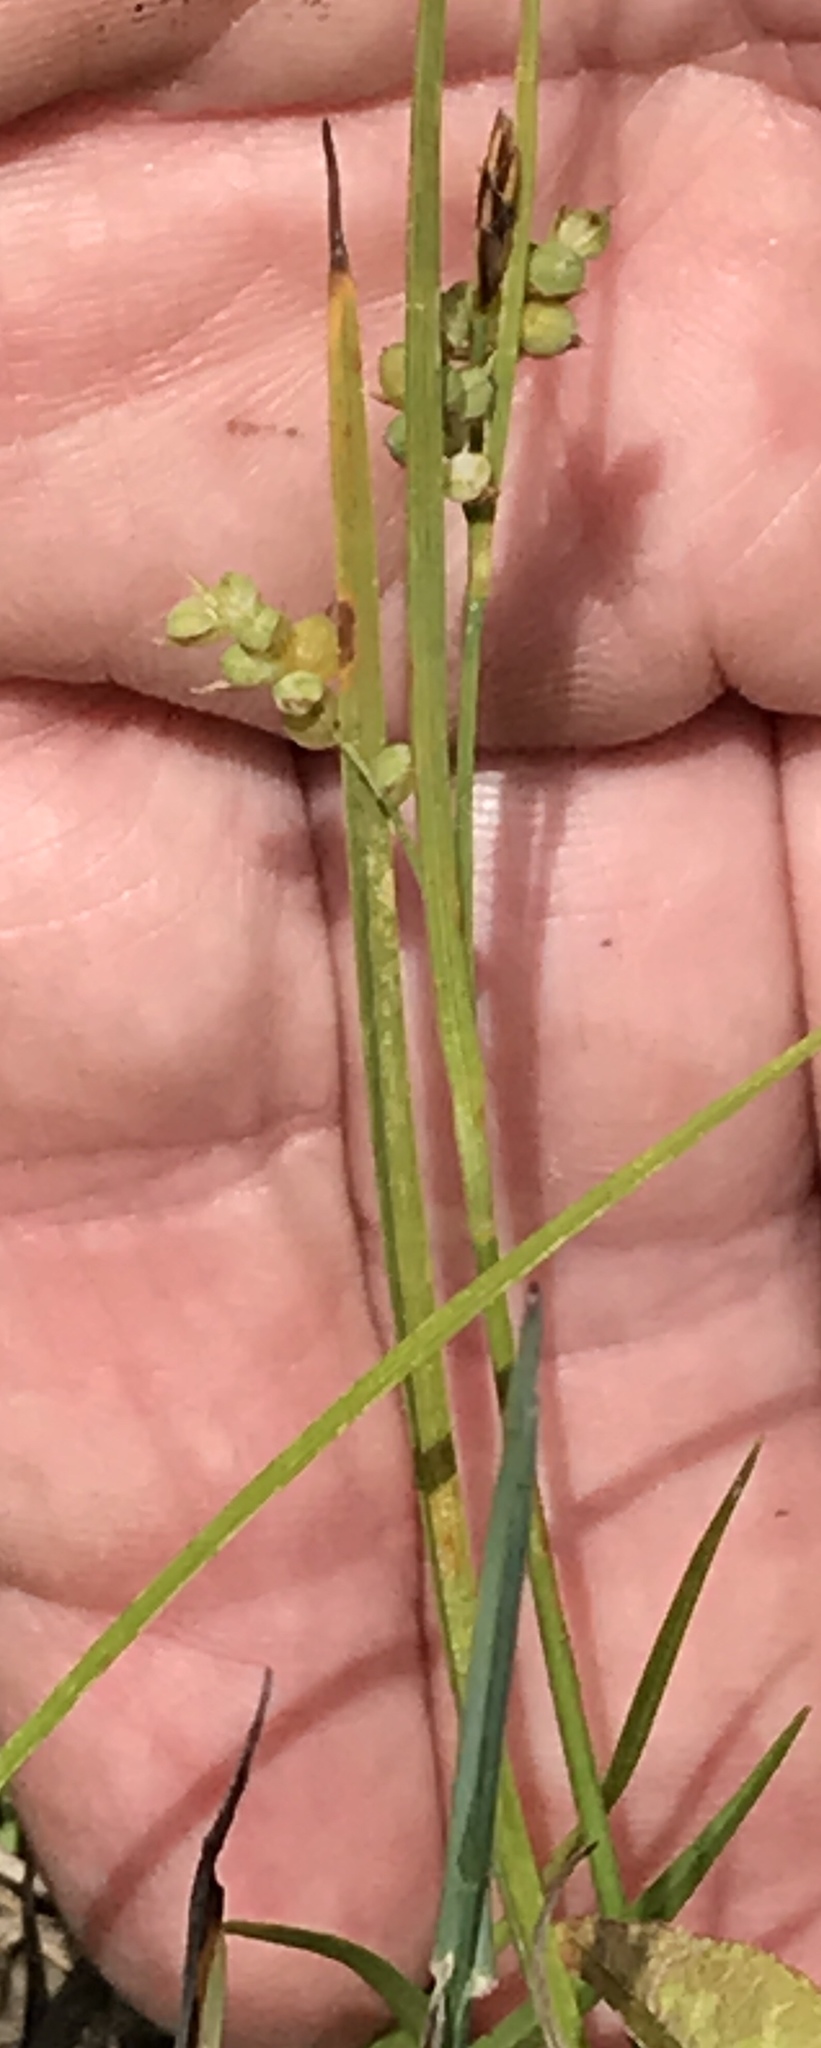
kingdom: Plantae
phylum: Tracheophyta
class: Liliopsida
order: Poales
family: Cyperaceae
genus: Carex
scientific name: Carex aurea
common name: Golden sedge
